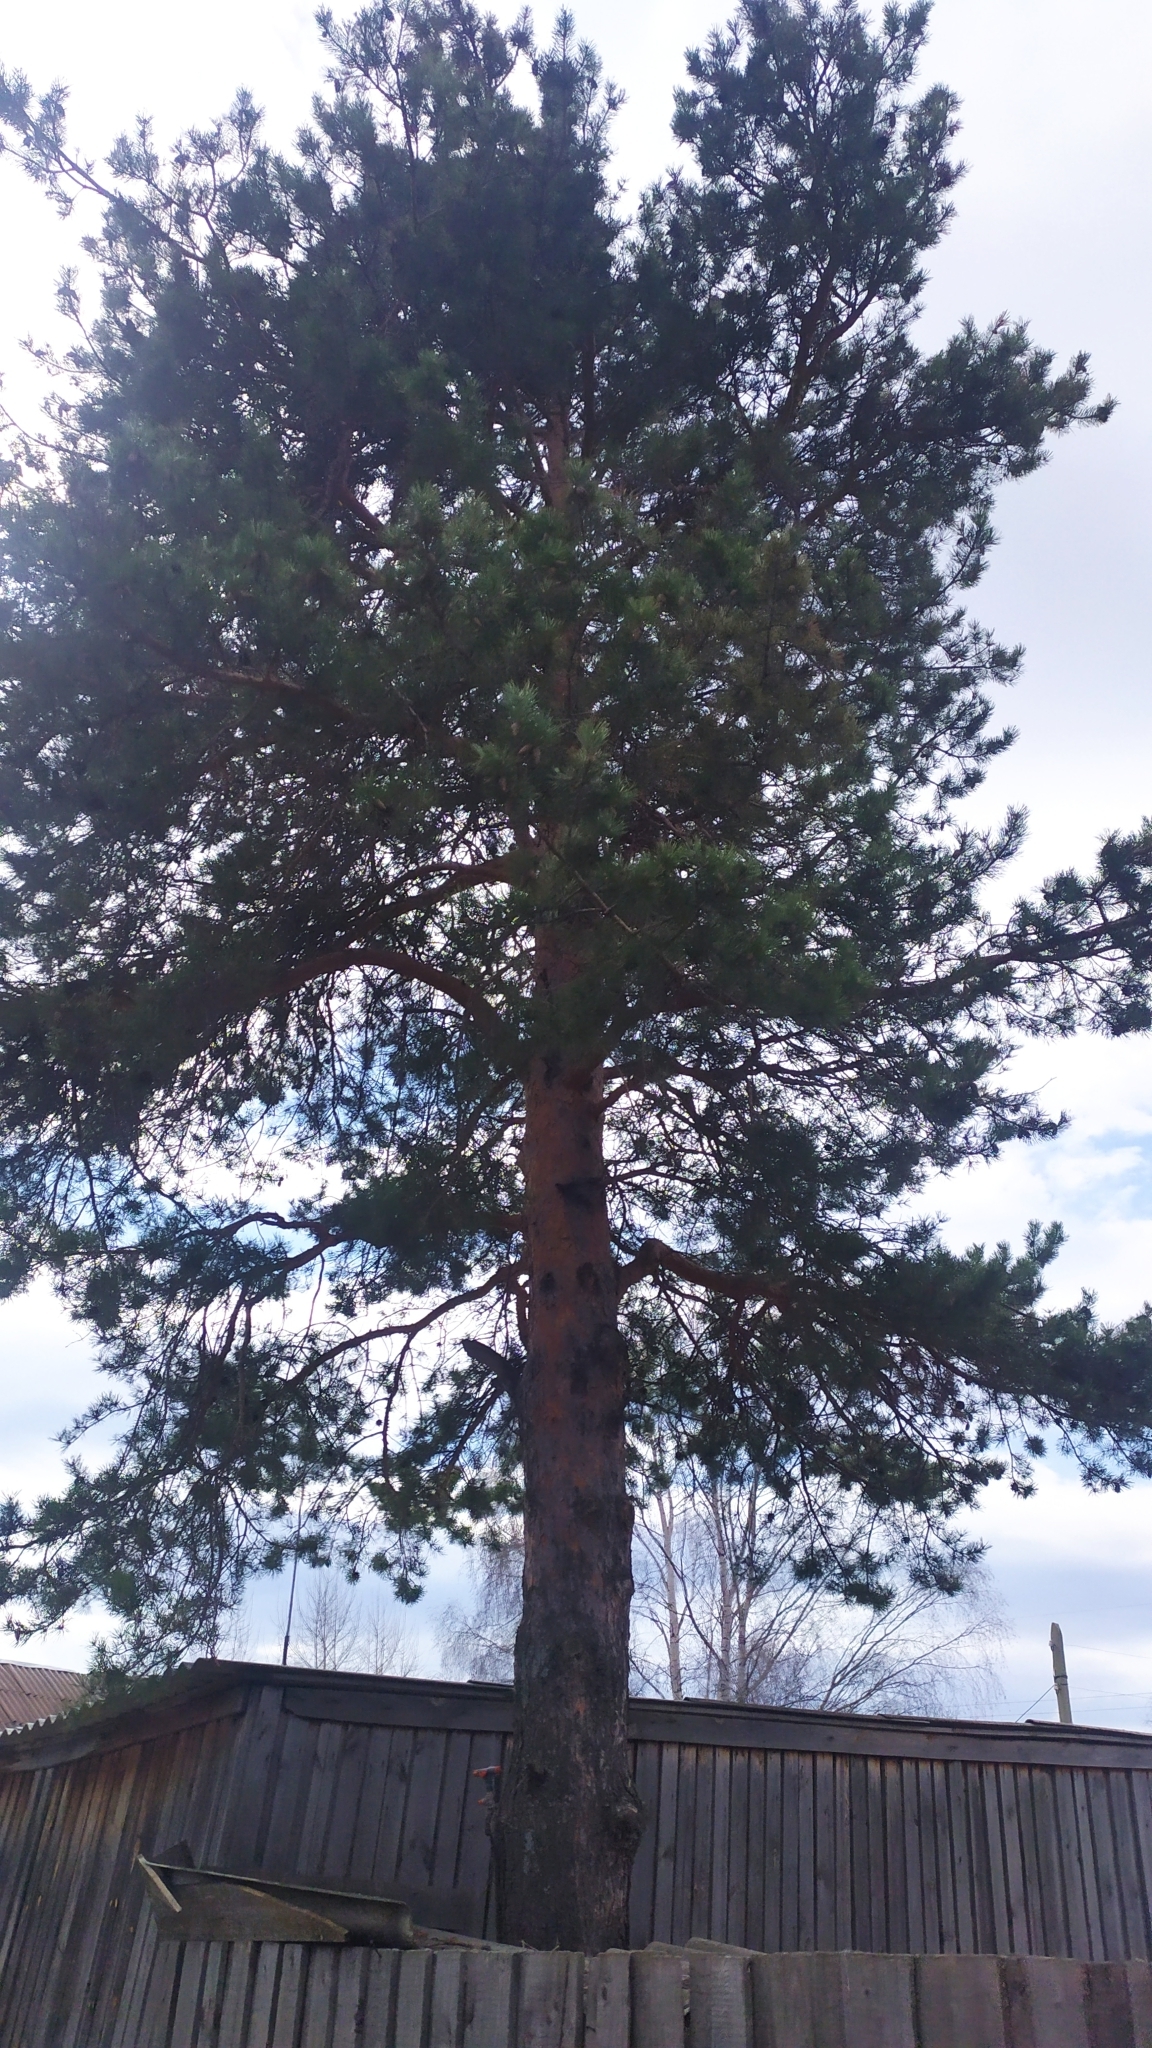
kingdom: Plantae
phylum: Tracheophyta
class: Pinopsida
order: Pinales
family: Pinaceae
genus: Pinus
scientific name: Pinus sylvestris
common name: Scots pine
